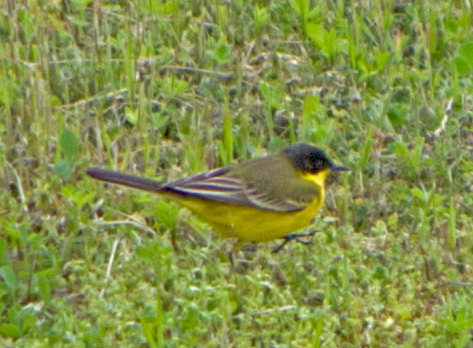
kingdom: Animalia
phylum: Chordata
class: Aves
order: Passeriformes
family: Motacillidae
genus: Motacilla
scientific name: Motacilla flava
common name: Western yellow wagtail
